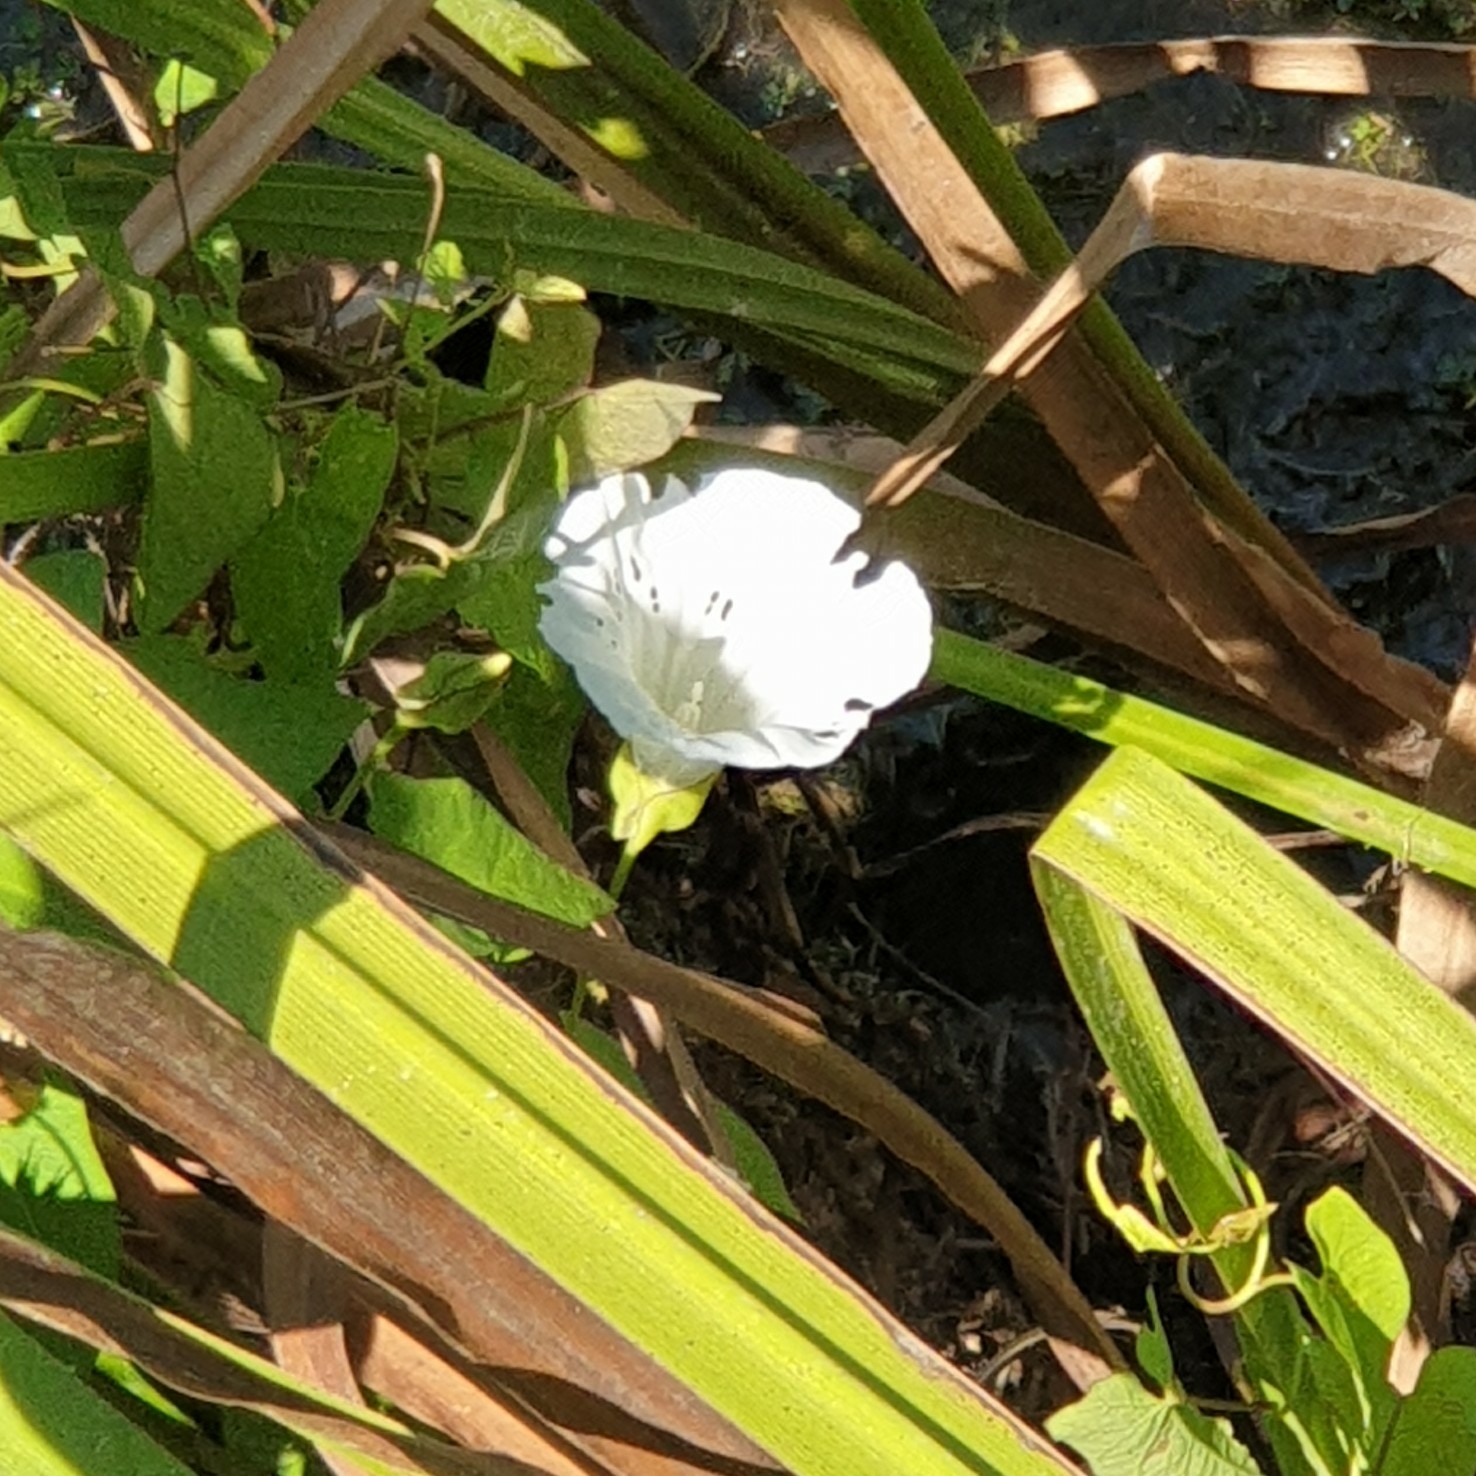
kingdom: Plantae
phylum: Tracheophyta
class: Magnoliopsida
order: Solanales
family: Convolvulaceae
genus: Calystegia
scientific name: Calystegia sepium
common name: Hedge bindweed
